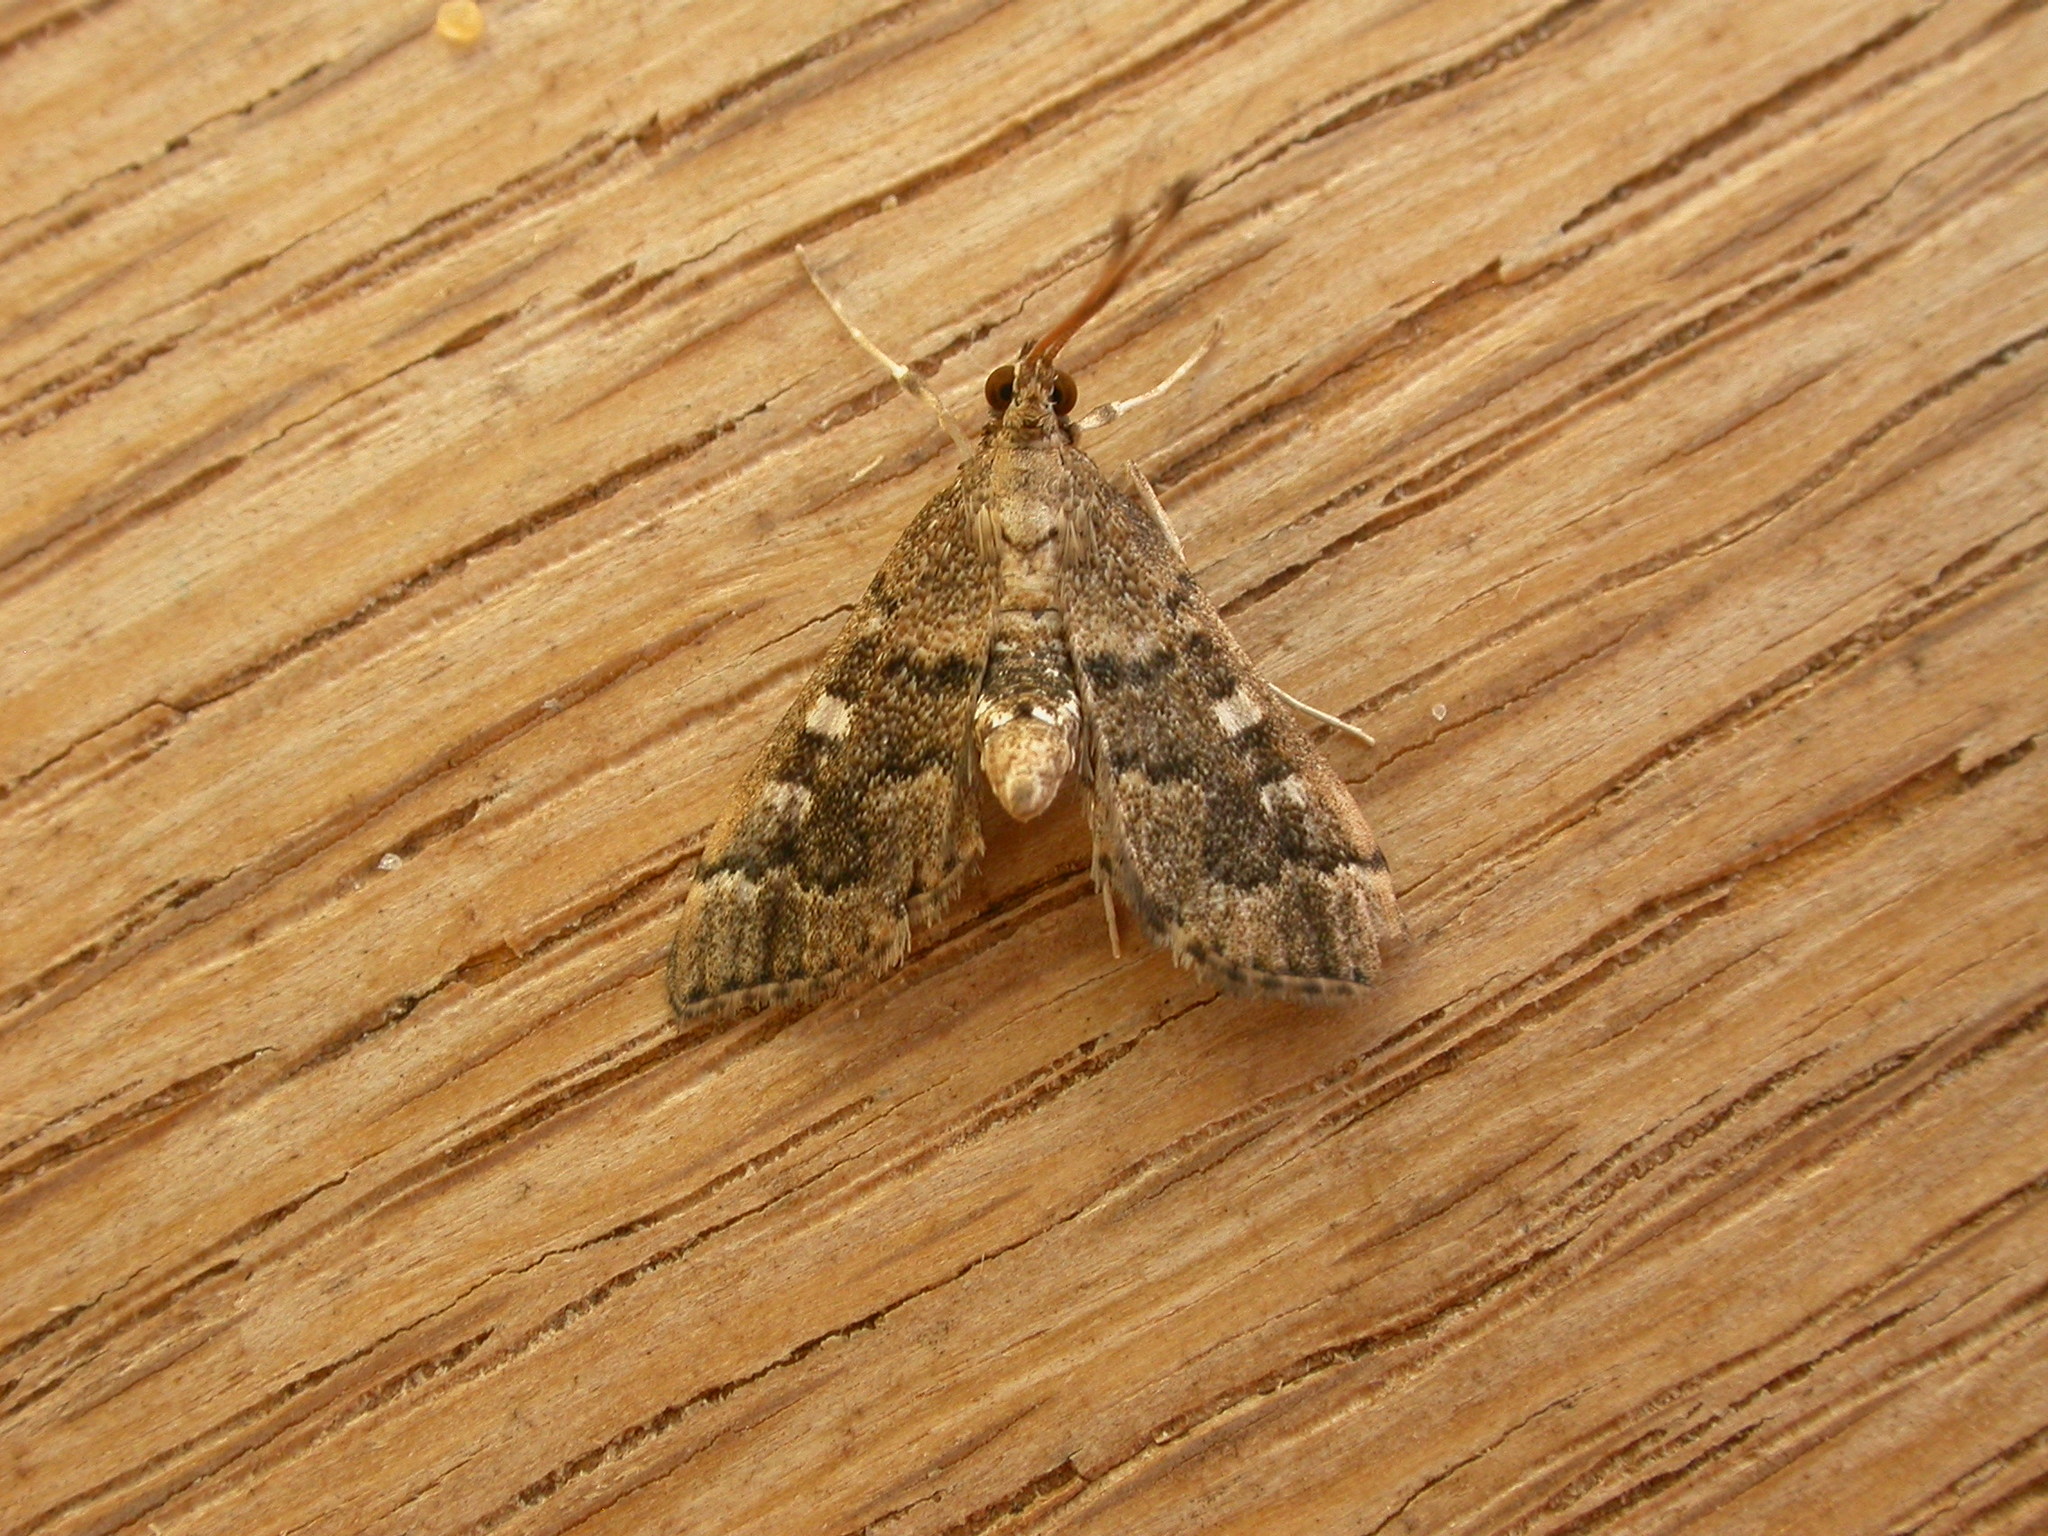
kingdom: Animalia
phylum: Arthropoda
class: Insecta
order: Lepidoptera
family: Crambidae
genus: Nacoleia
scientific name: Nacoleia rhoeoalis
